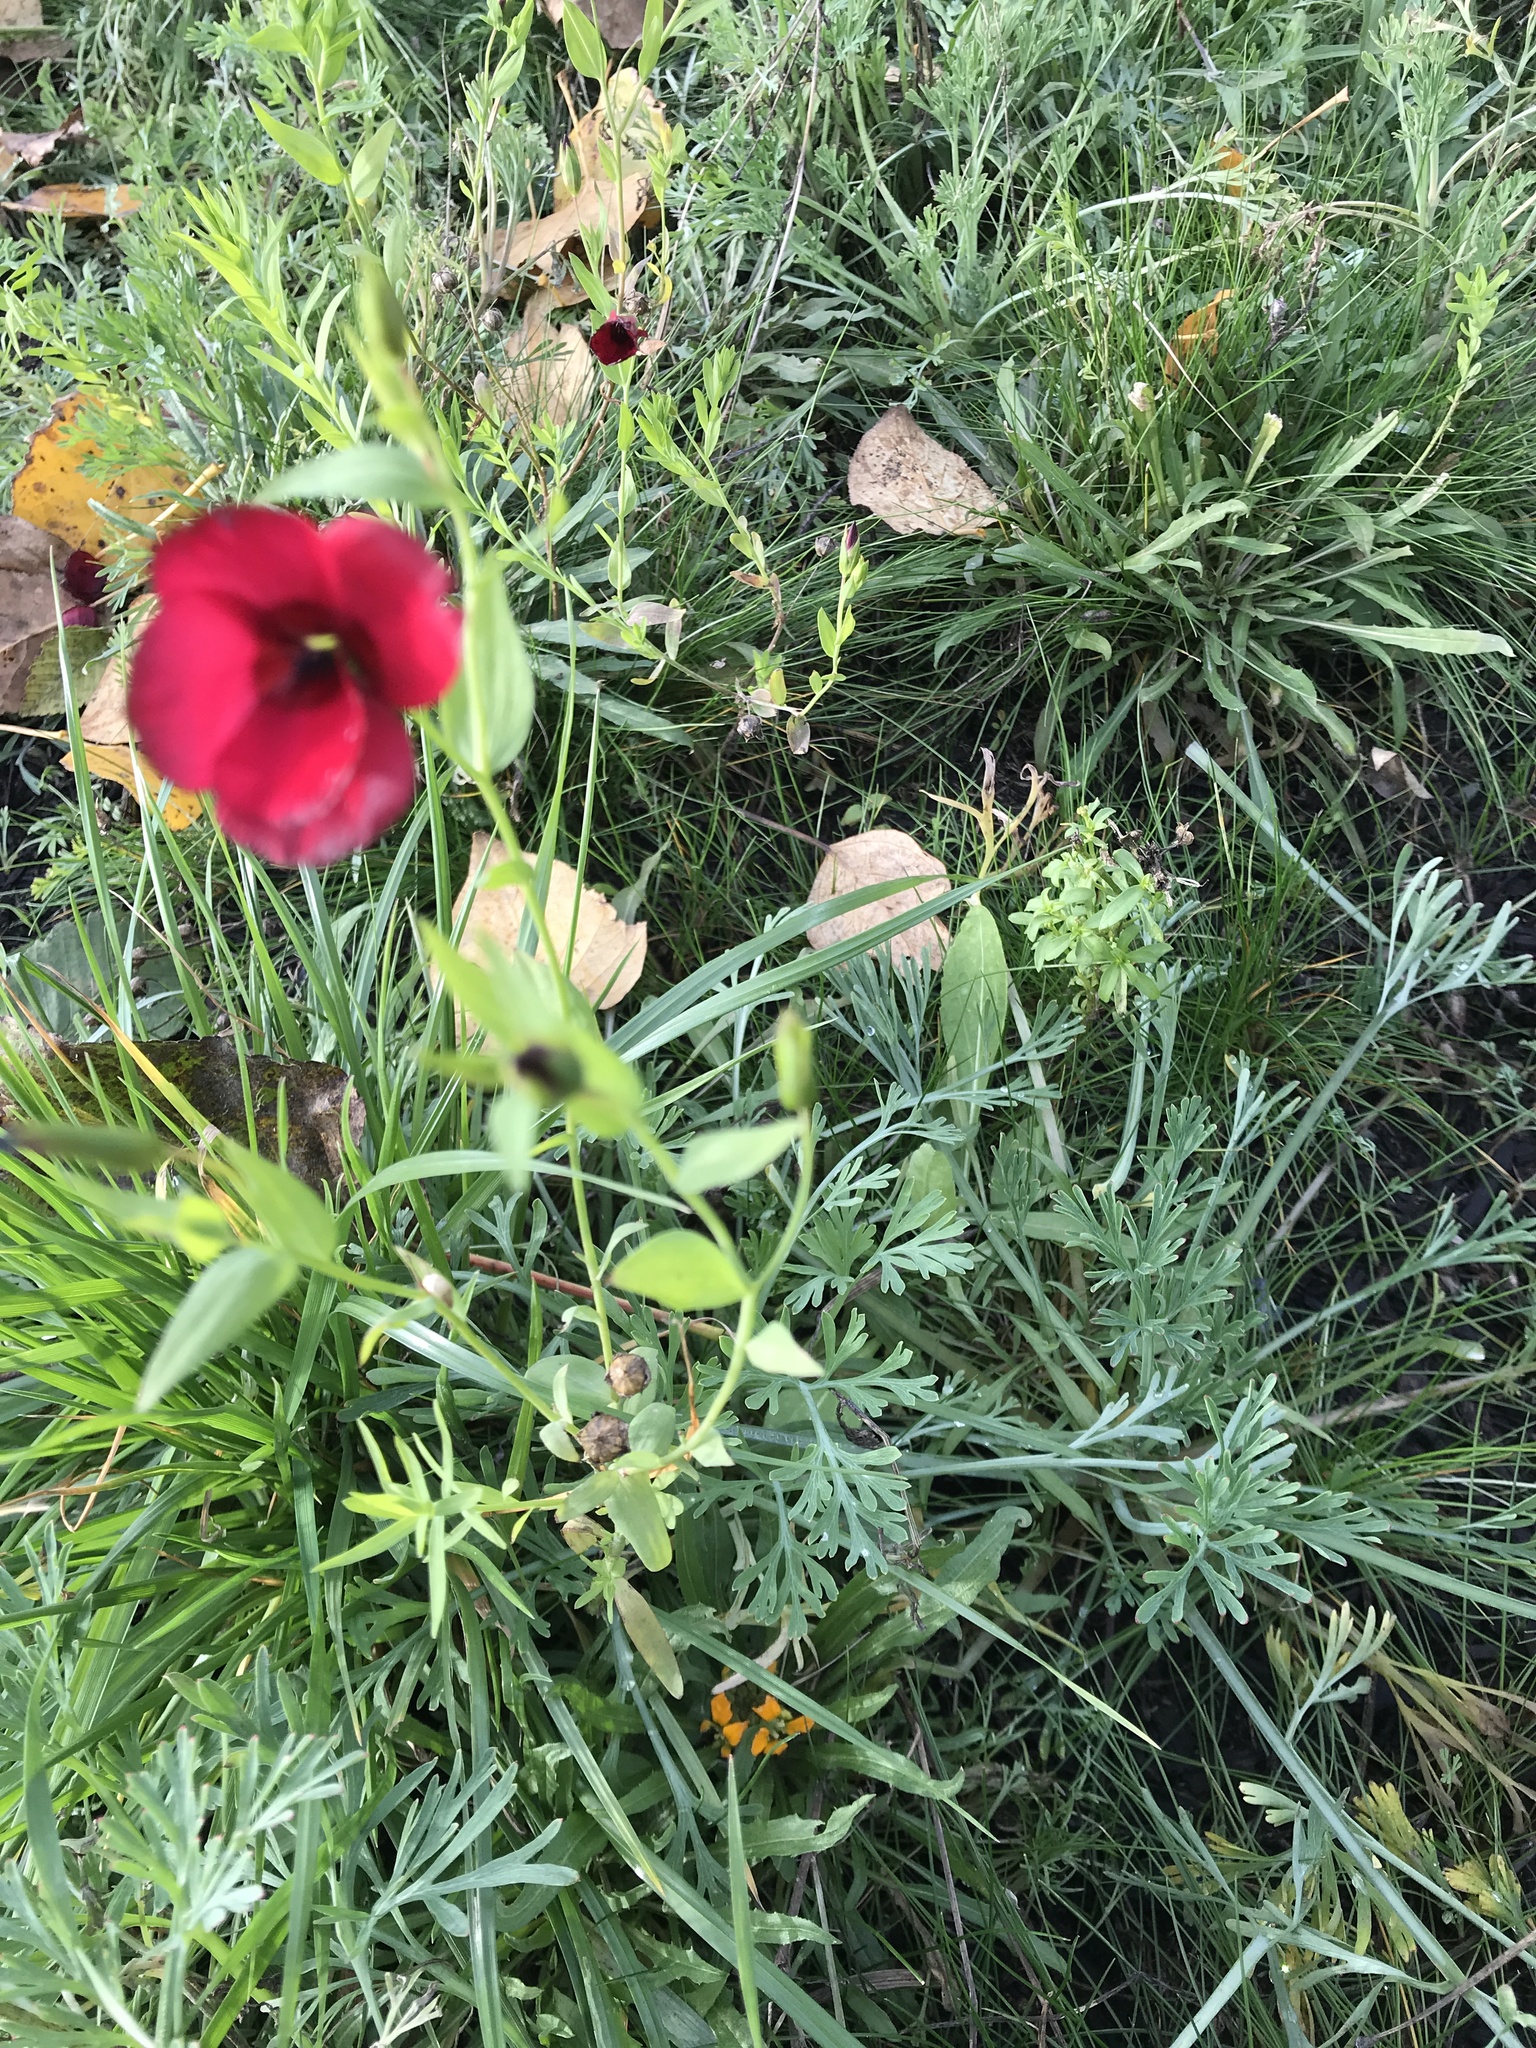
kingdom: Plantae
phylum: Tracheophyta
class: Magnoliopsida
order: Malpighiales
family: Linaceae
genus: Linum
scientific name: Linum grandiflorum
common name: Crimson flax
